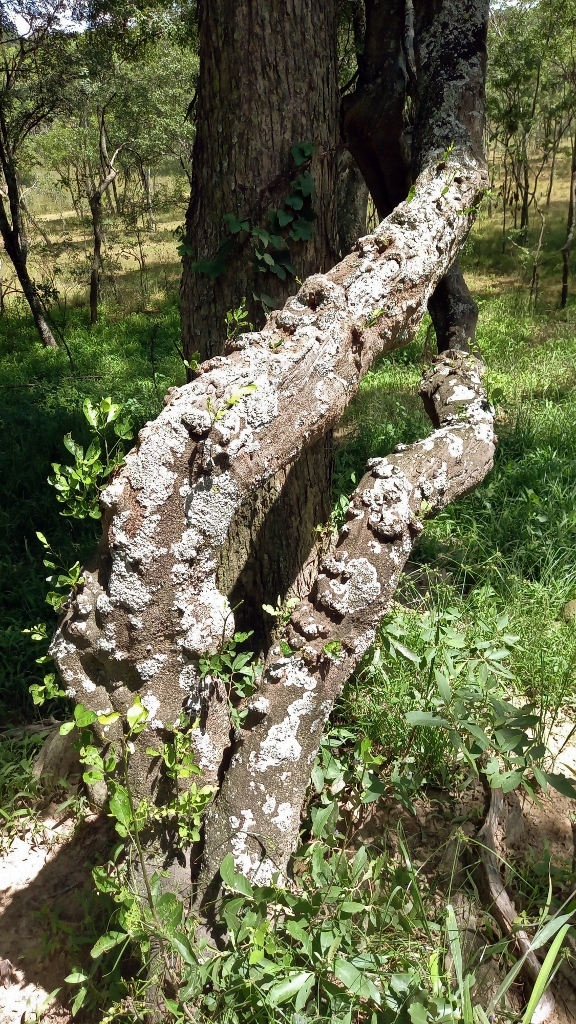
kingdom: Plantae
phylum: Tracheophyta
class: Magnoliopsida
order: Brassicales
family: Capparaceae
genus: Maerua
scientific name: Maerua triphylla
